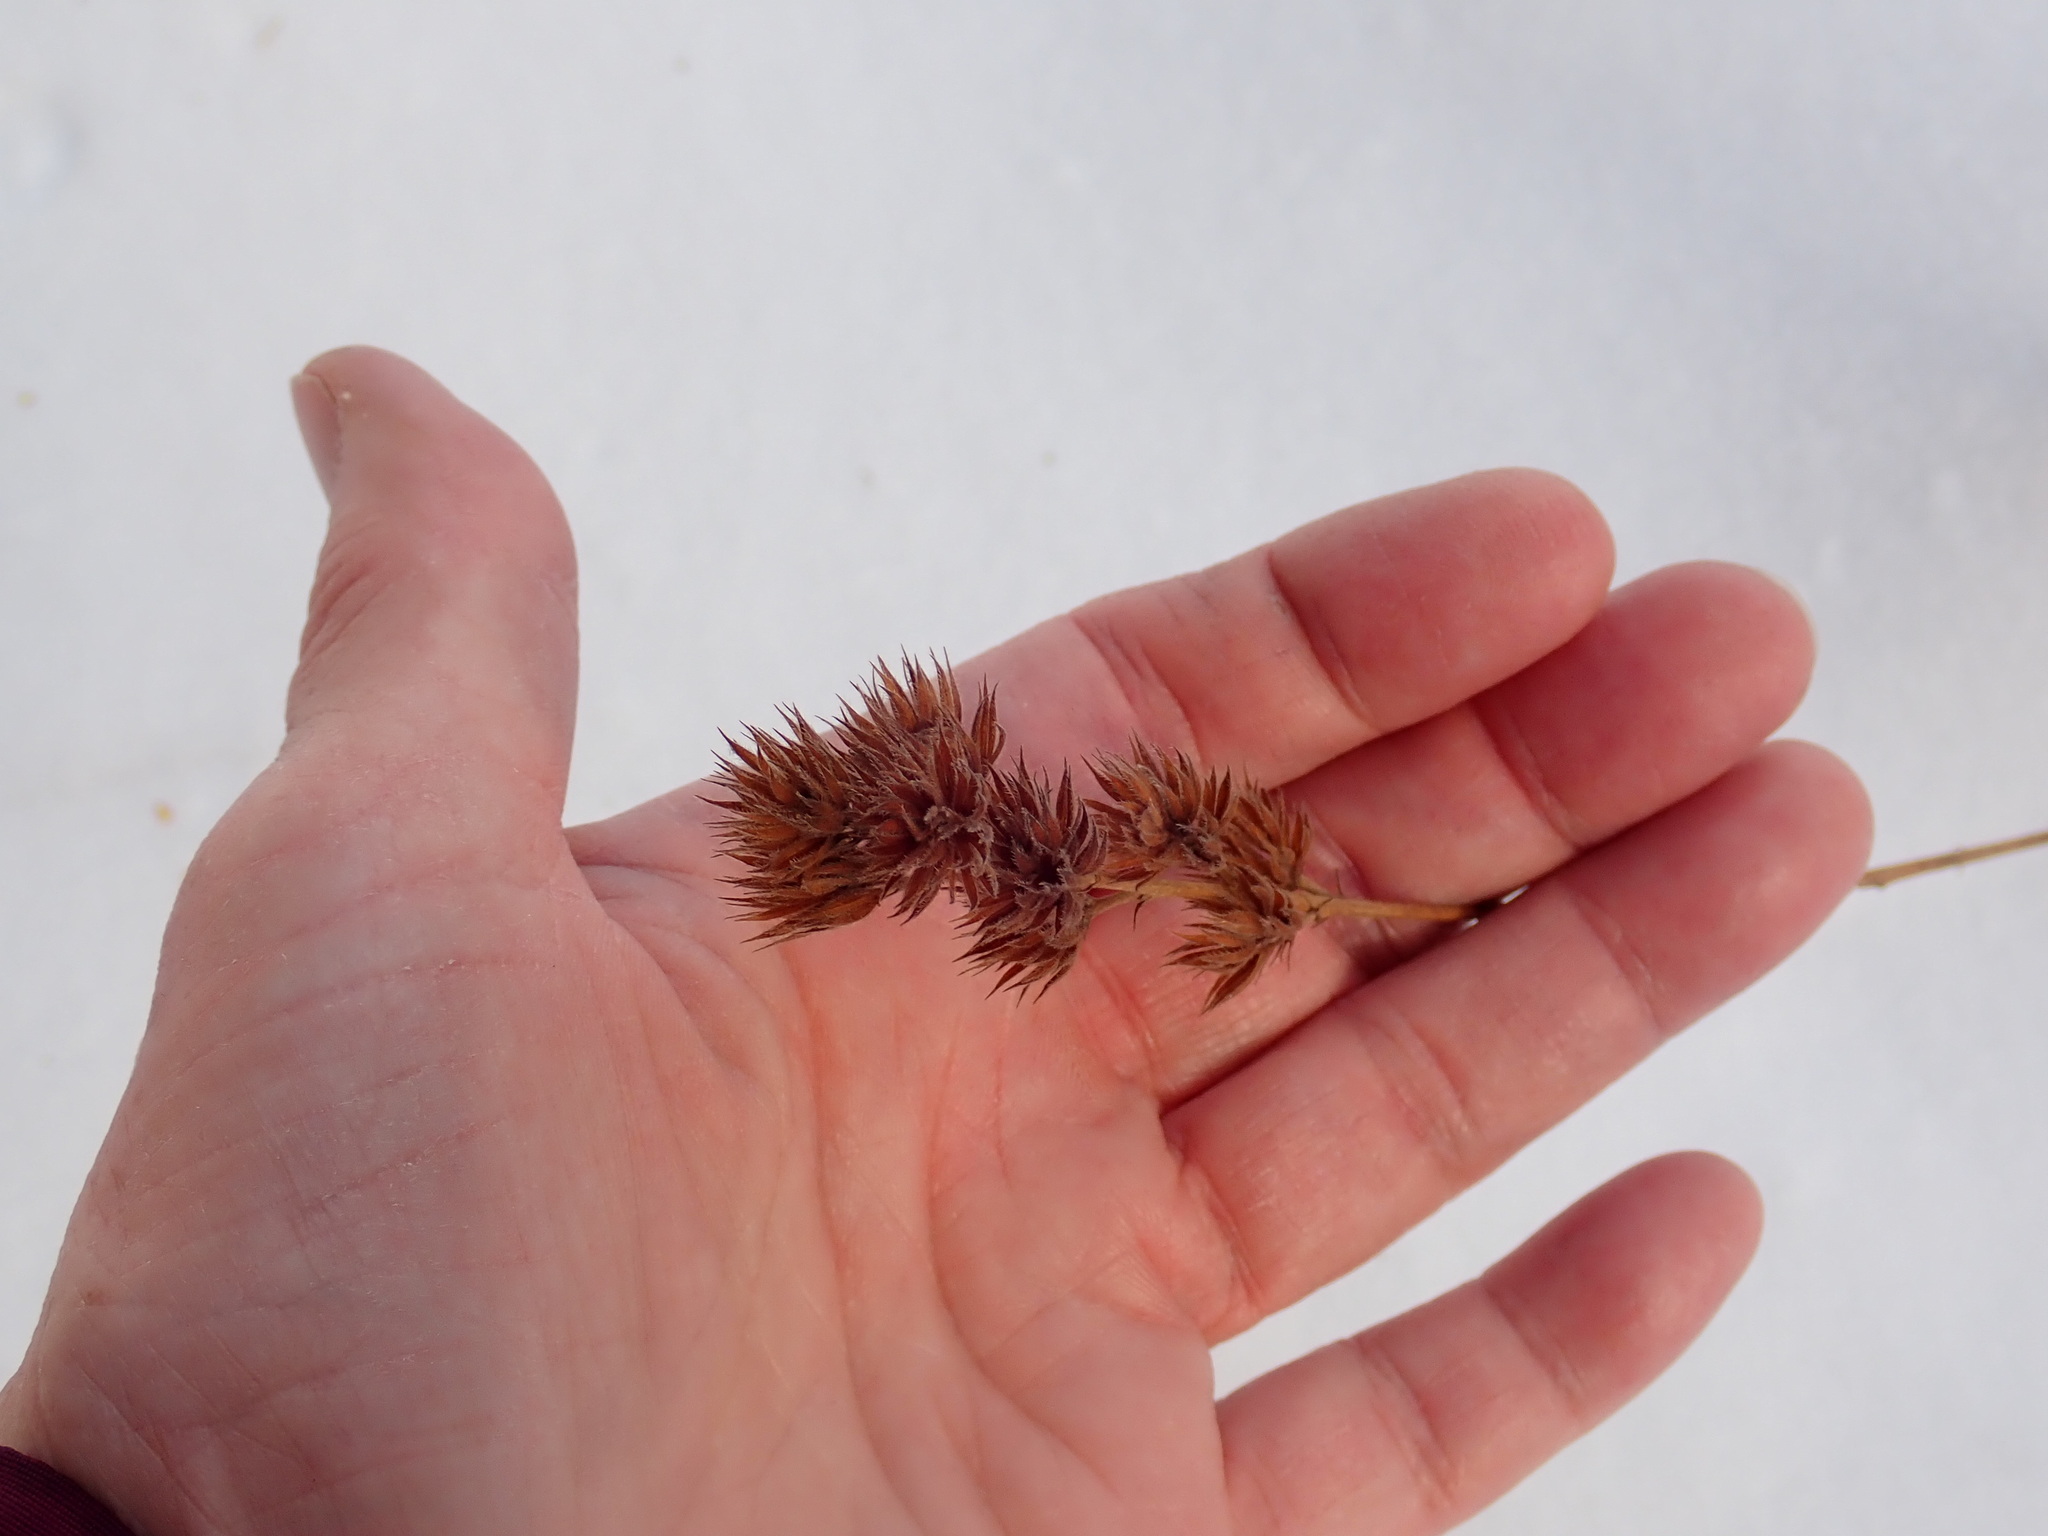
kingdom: Plantae
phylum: Tracheophyta
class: Magnoliopsida
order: Fabales
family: Fabaceae
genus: Lespedeza
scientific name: Lespedeza capitata
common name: Dusty clover
